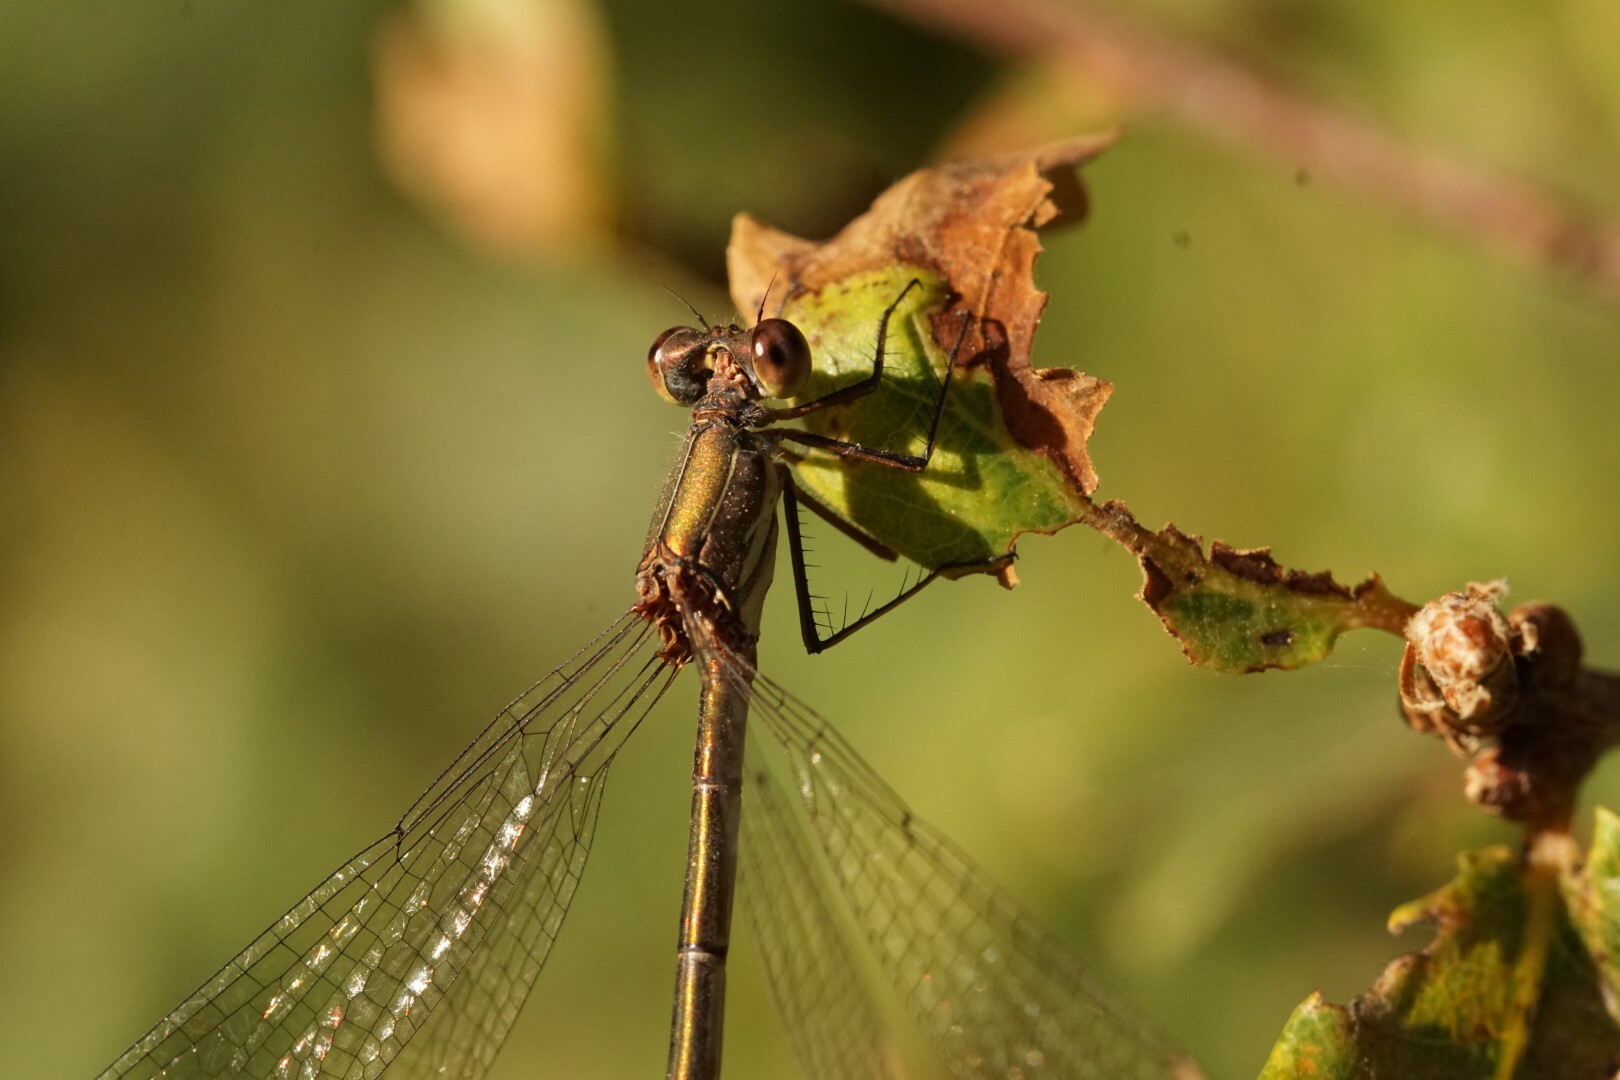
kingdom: Animalia
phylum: Arthropoda
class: Insecta
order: Odonata
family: Lestidae
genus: Chalcolestes
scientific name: Chalcolestes viridis
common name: Green emerald damselfly
